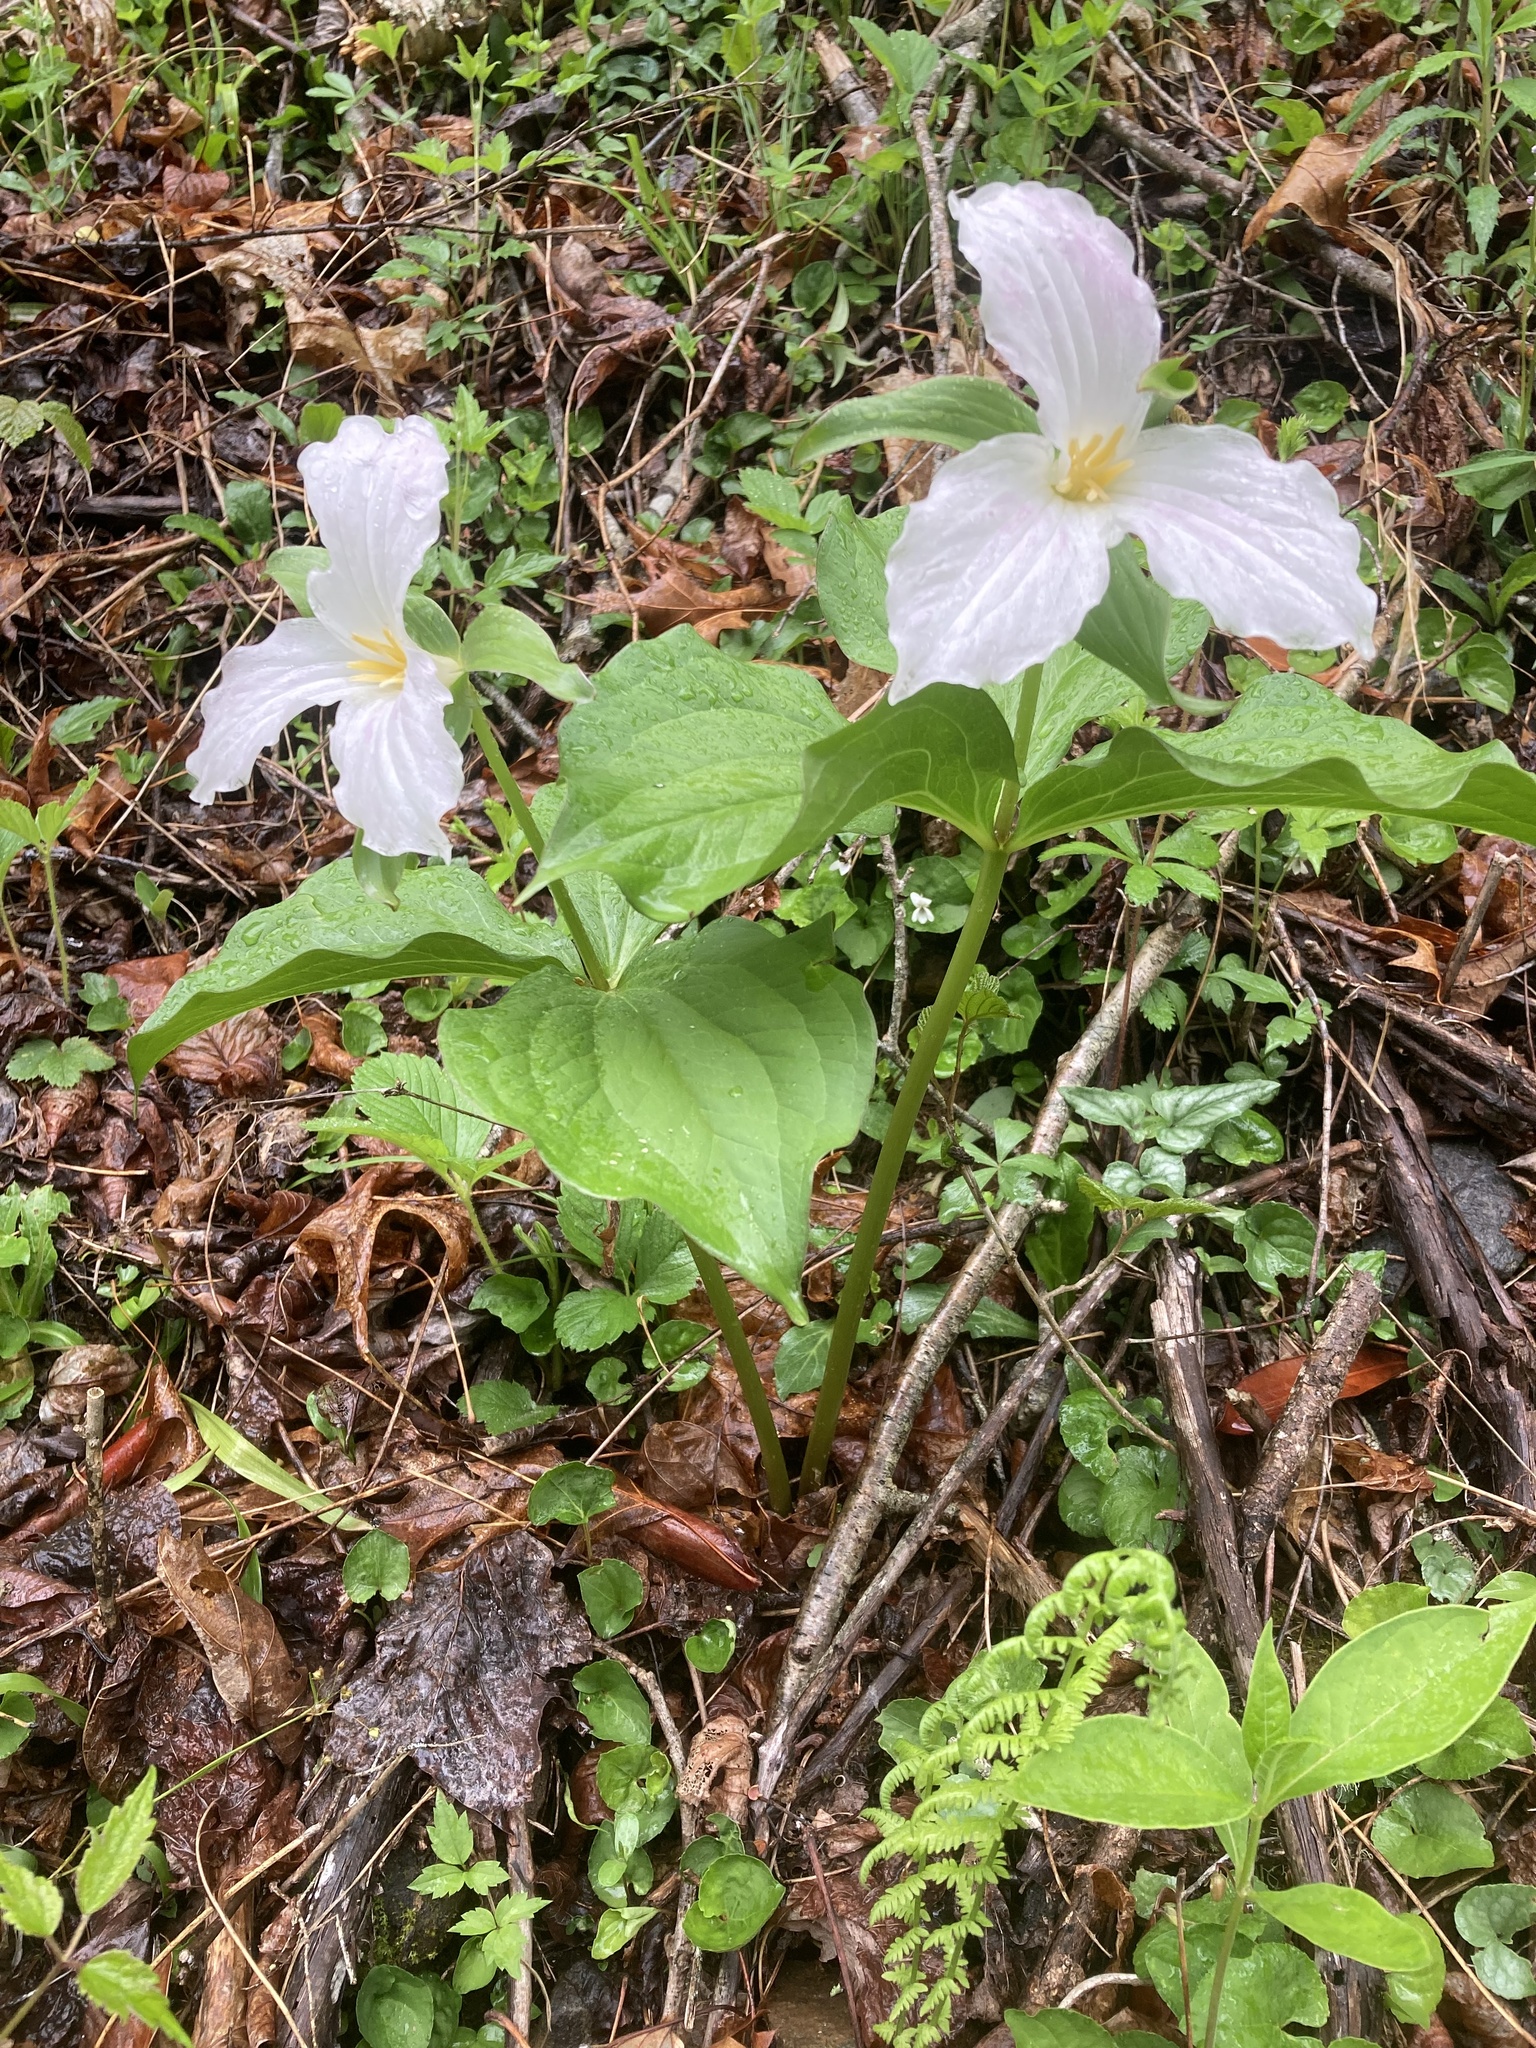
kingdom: Plantae
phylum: Tracheophyta
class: Liliopsida
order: Liliales
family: Melanthiaceae
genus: Trillium
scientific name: Trillium grandiflorum
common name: Great white trillium
